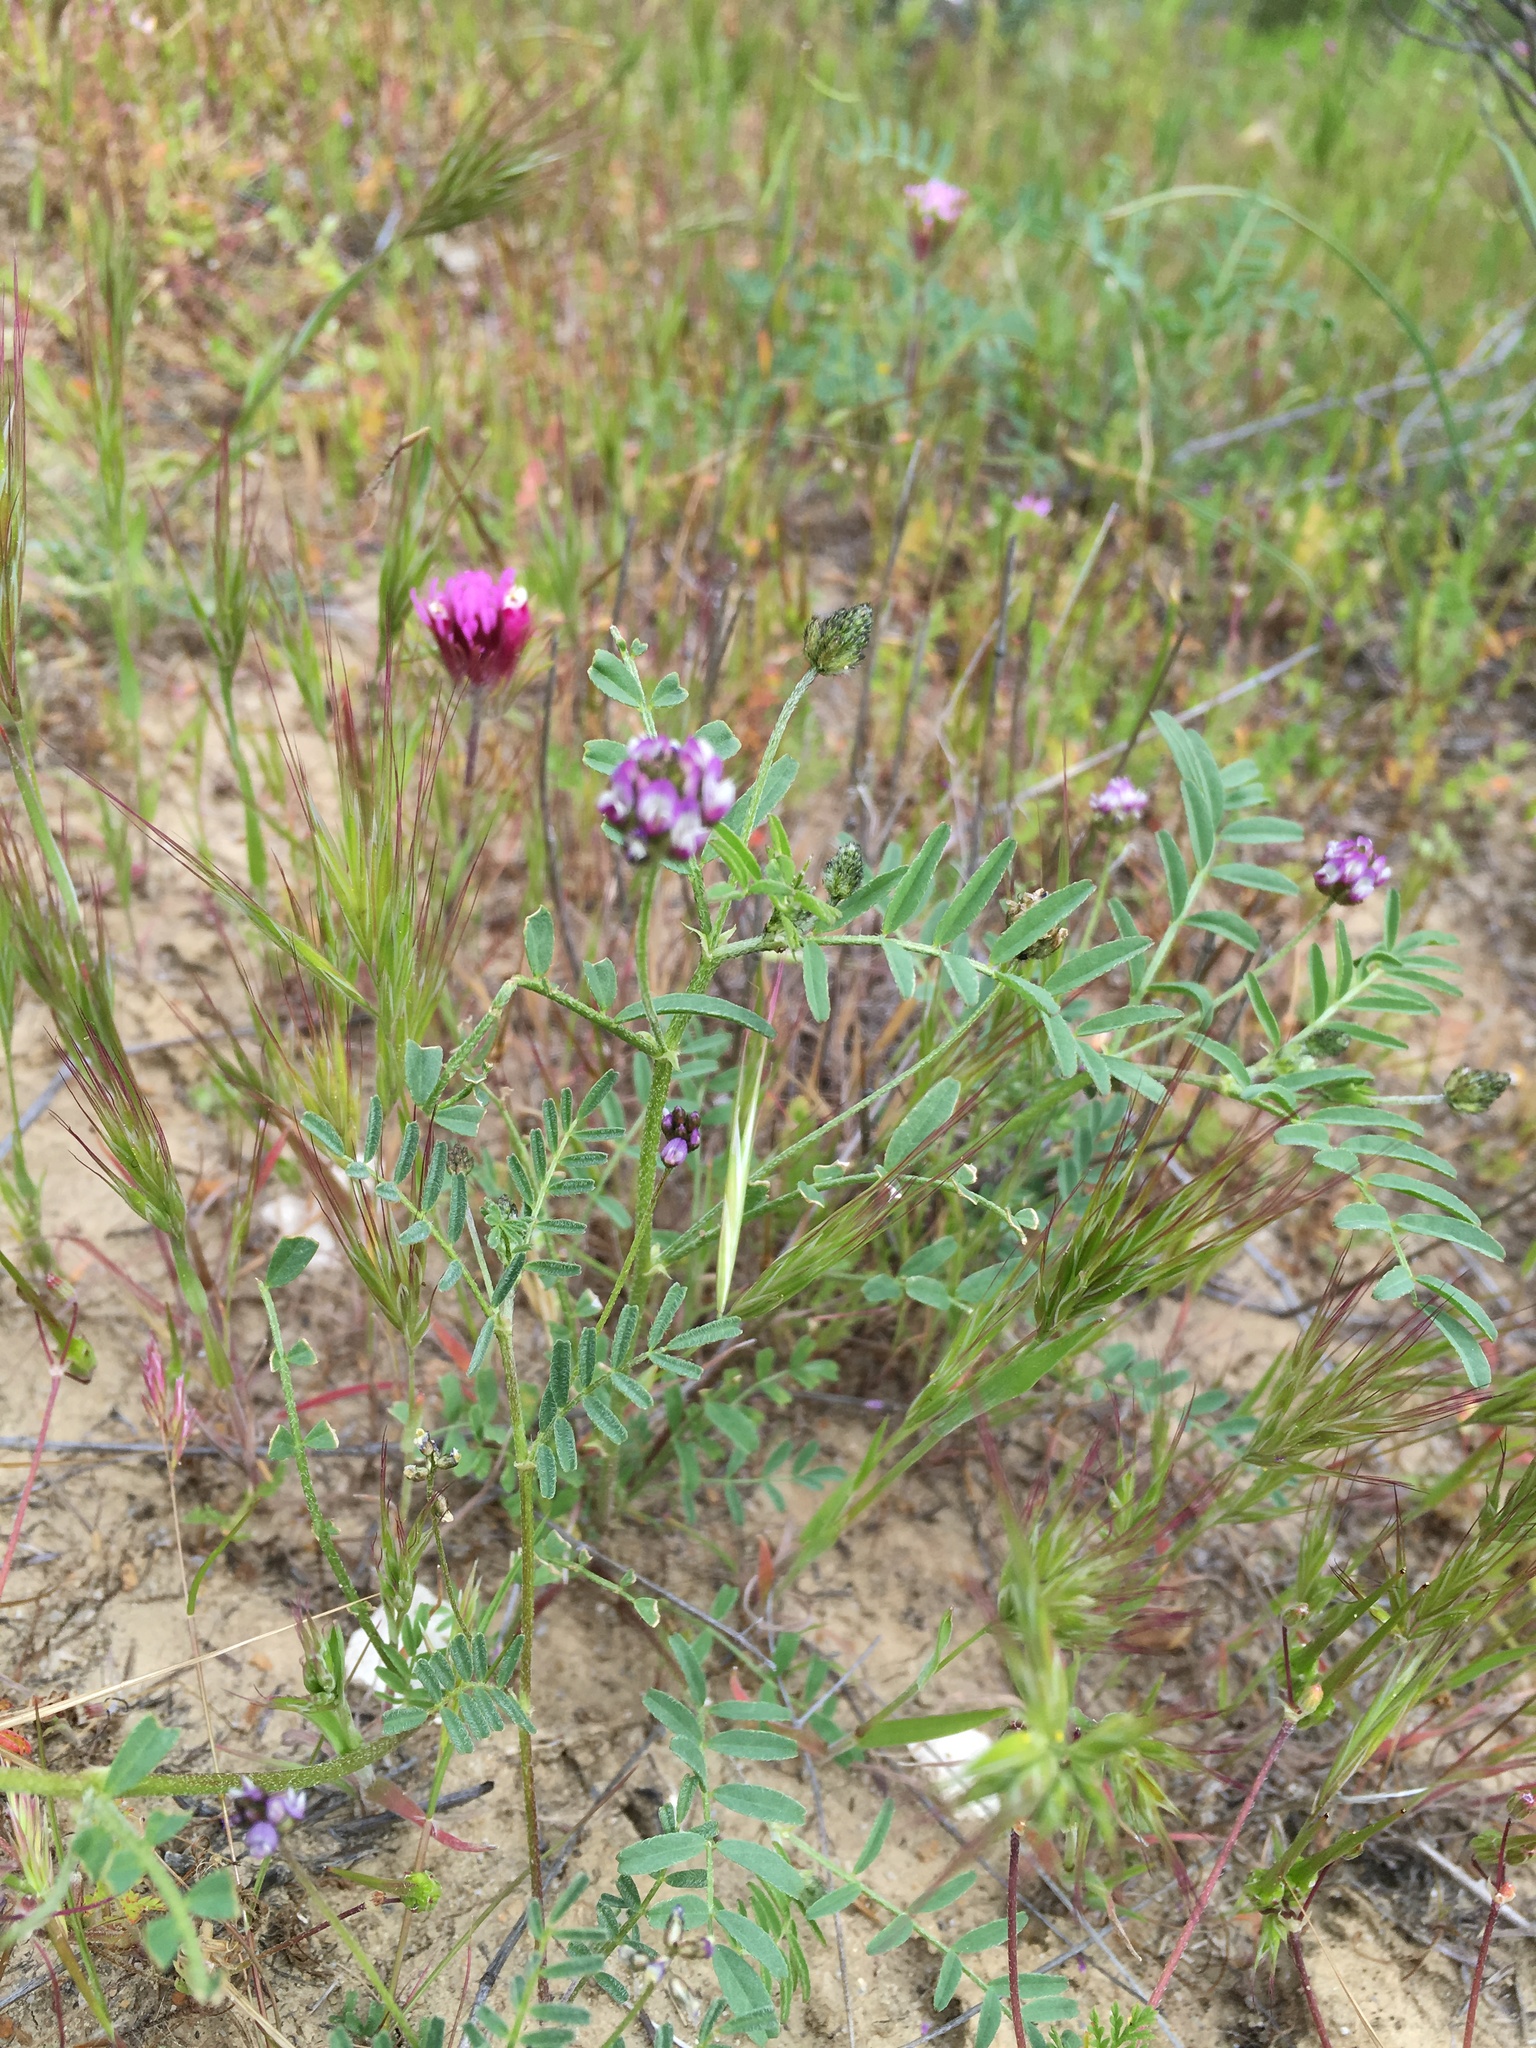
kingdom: Plantae
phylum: Tracheophyta
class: Magnoliopsida
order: Fabales
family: Fabaceae
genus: Astragalus
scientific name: Astragalus didymocarpus
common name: Dwarf white milkvetch
